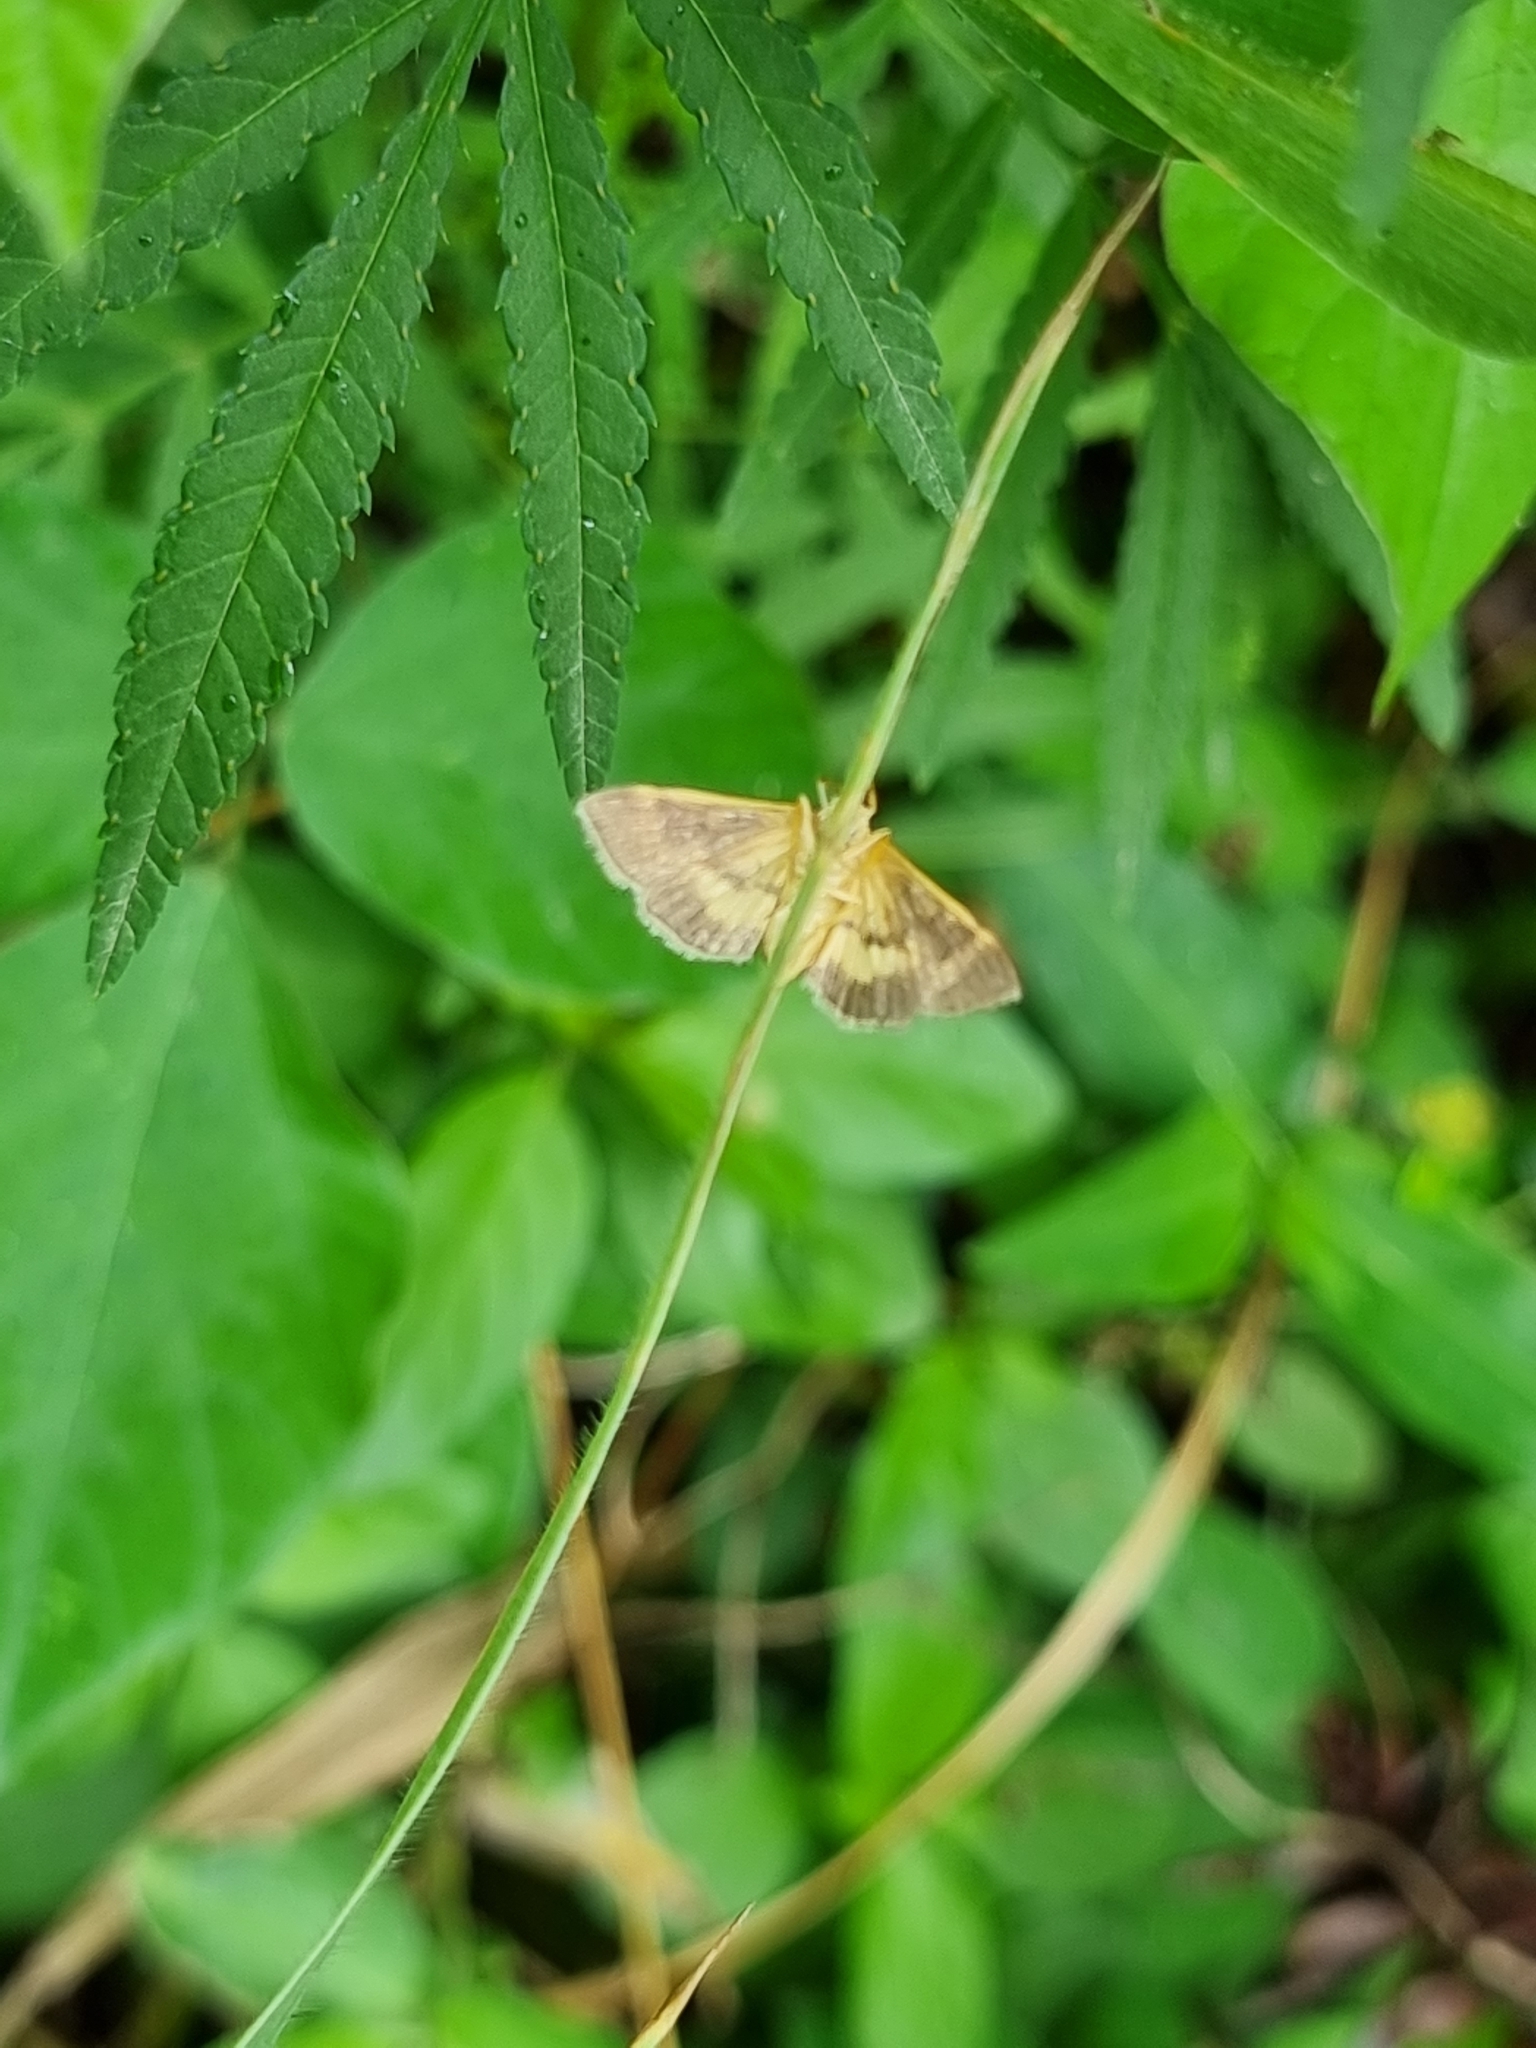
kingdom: Animalia
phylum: Arthropoda
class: Insecta
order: Lepidoptera
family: Crambidae
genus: Omiodes
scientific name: Omiodes diemenalis
